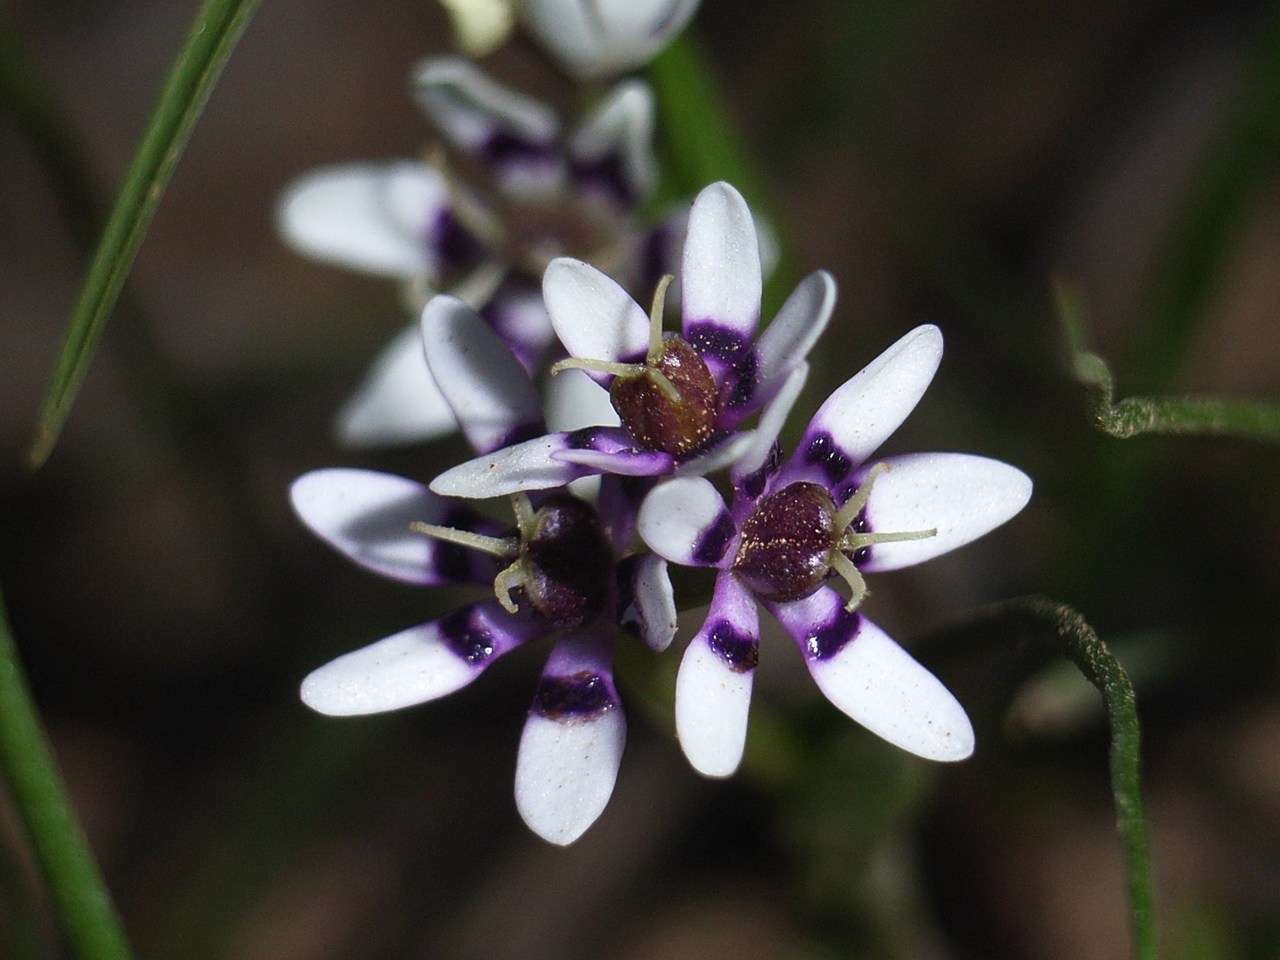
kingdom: Plantae
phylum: Tracheophyta
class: Liliopsida
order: Liliales
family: Colchicaceae
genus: Wurmbea
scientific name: Wurmbea dioica
